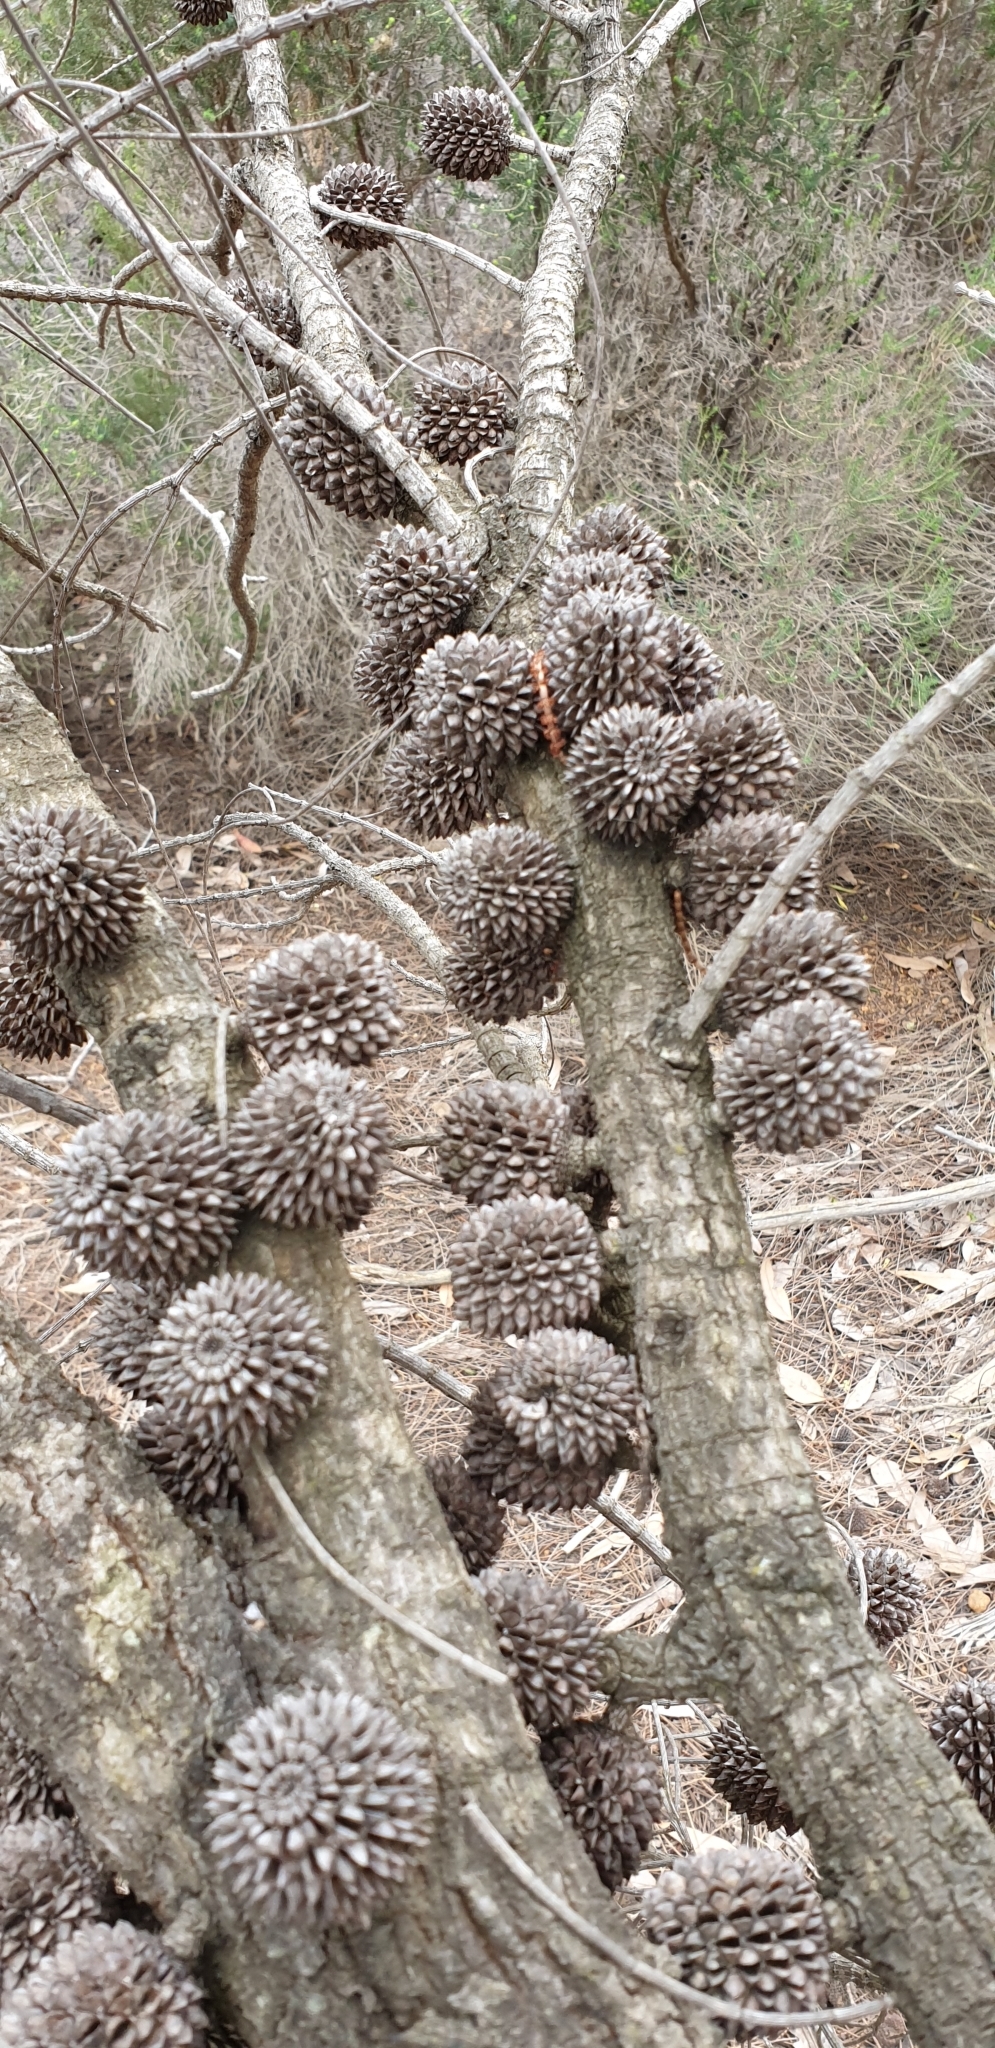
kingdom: Plantae
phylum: Tracheophyta
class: Magnoliopsida
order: Fagales
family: Casuarinaceae
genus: Allocasuarina
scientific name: Allocasuarina verticillata
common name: Drooping she-oak
